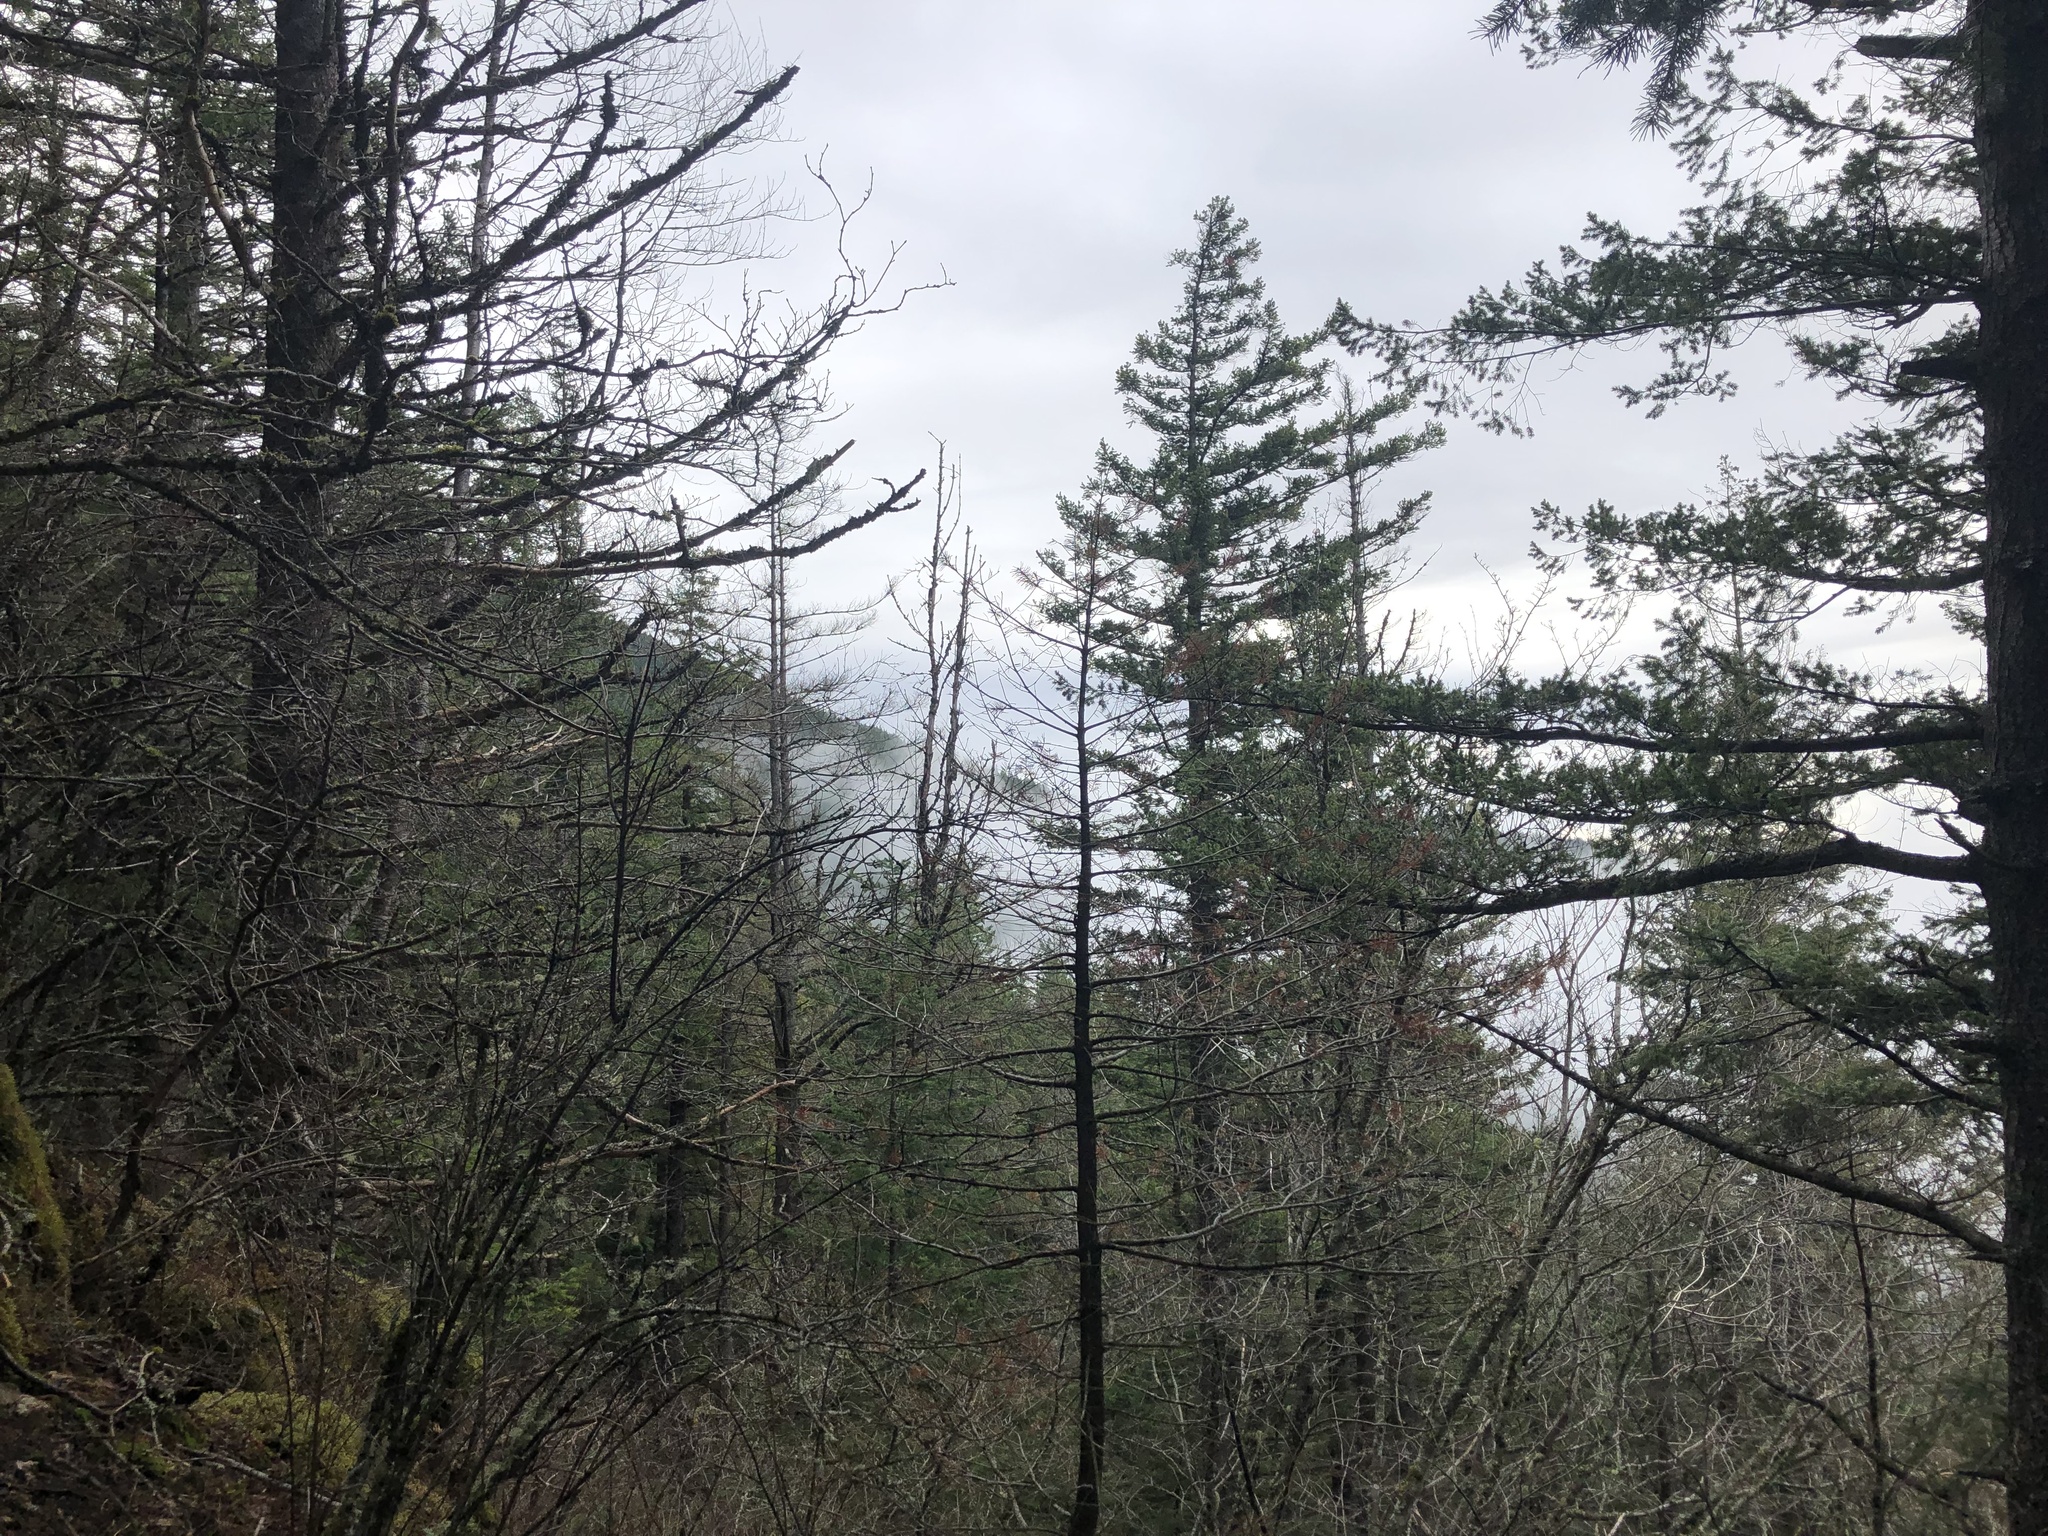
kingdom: Plantae
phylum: Tracheophyta
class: Pinopsida
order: Pinales
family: Pinaceae
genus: Pseudotsuga
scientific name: Pseudotsuga menziesii
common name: Douglas fir
